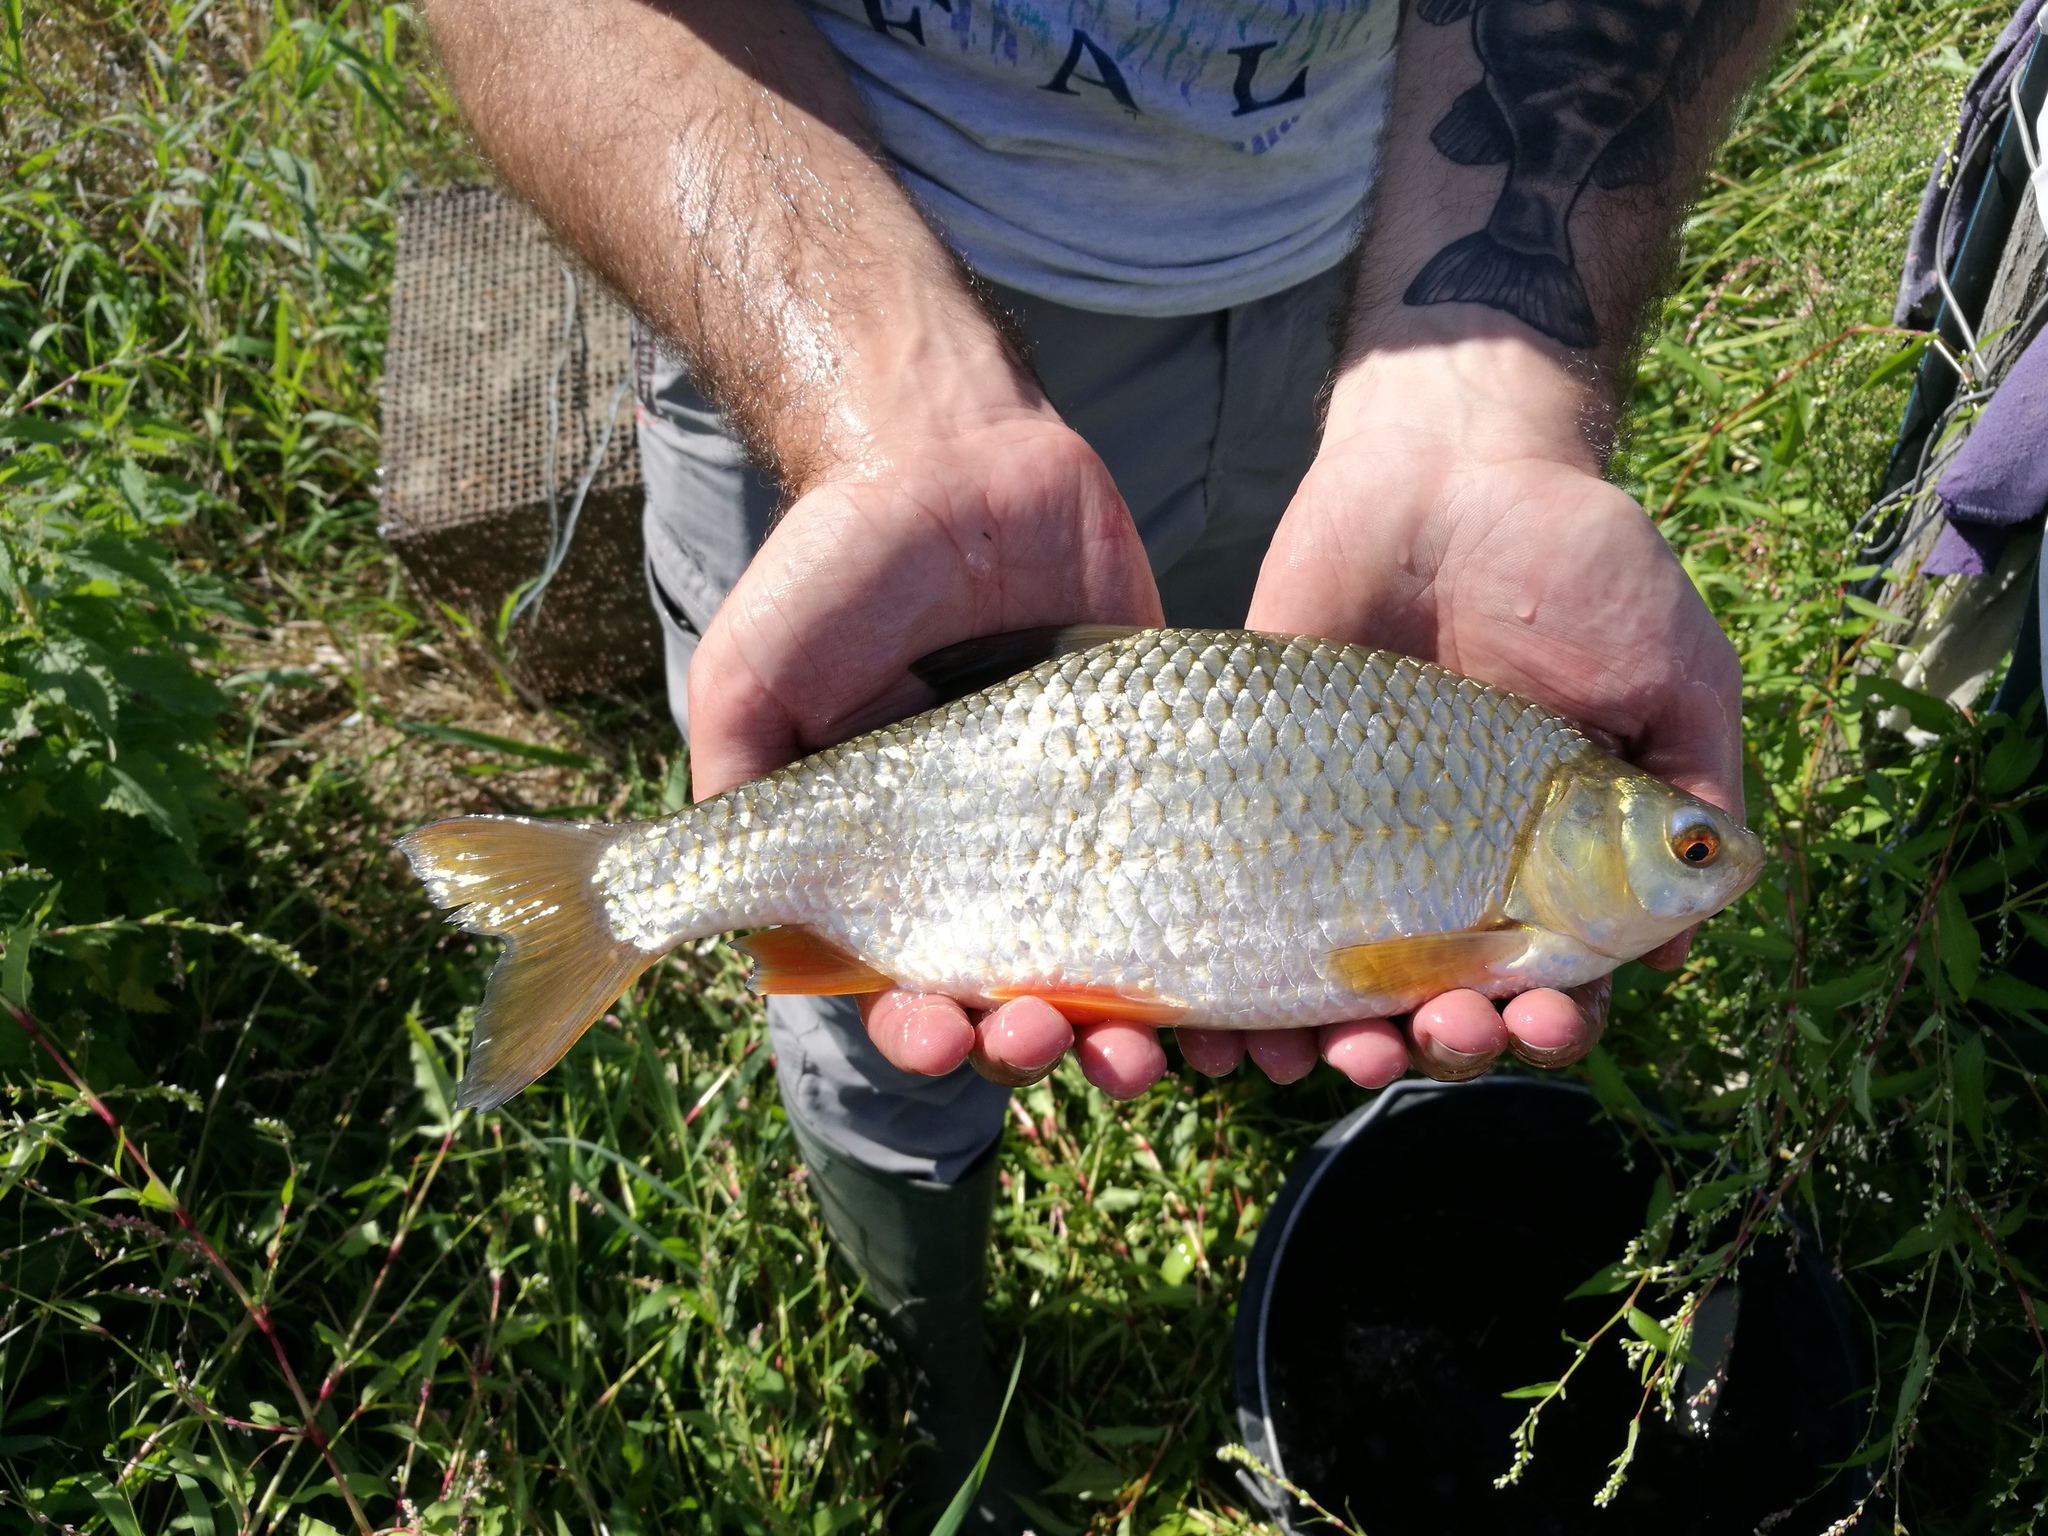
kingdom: Animalia
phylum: Chordata
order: Cypriniformes
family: Cyprinidae
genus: Rutilus
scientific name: Rutilus rutilus
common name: Roach
